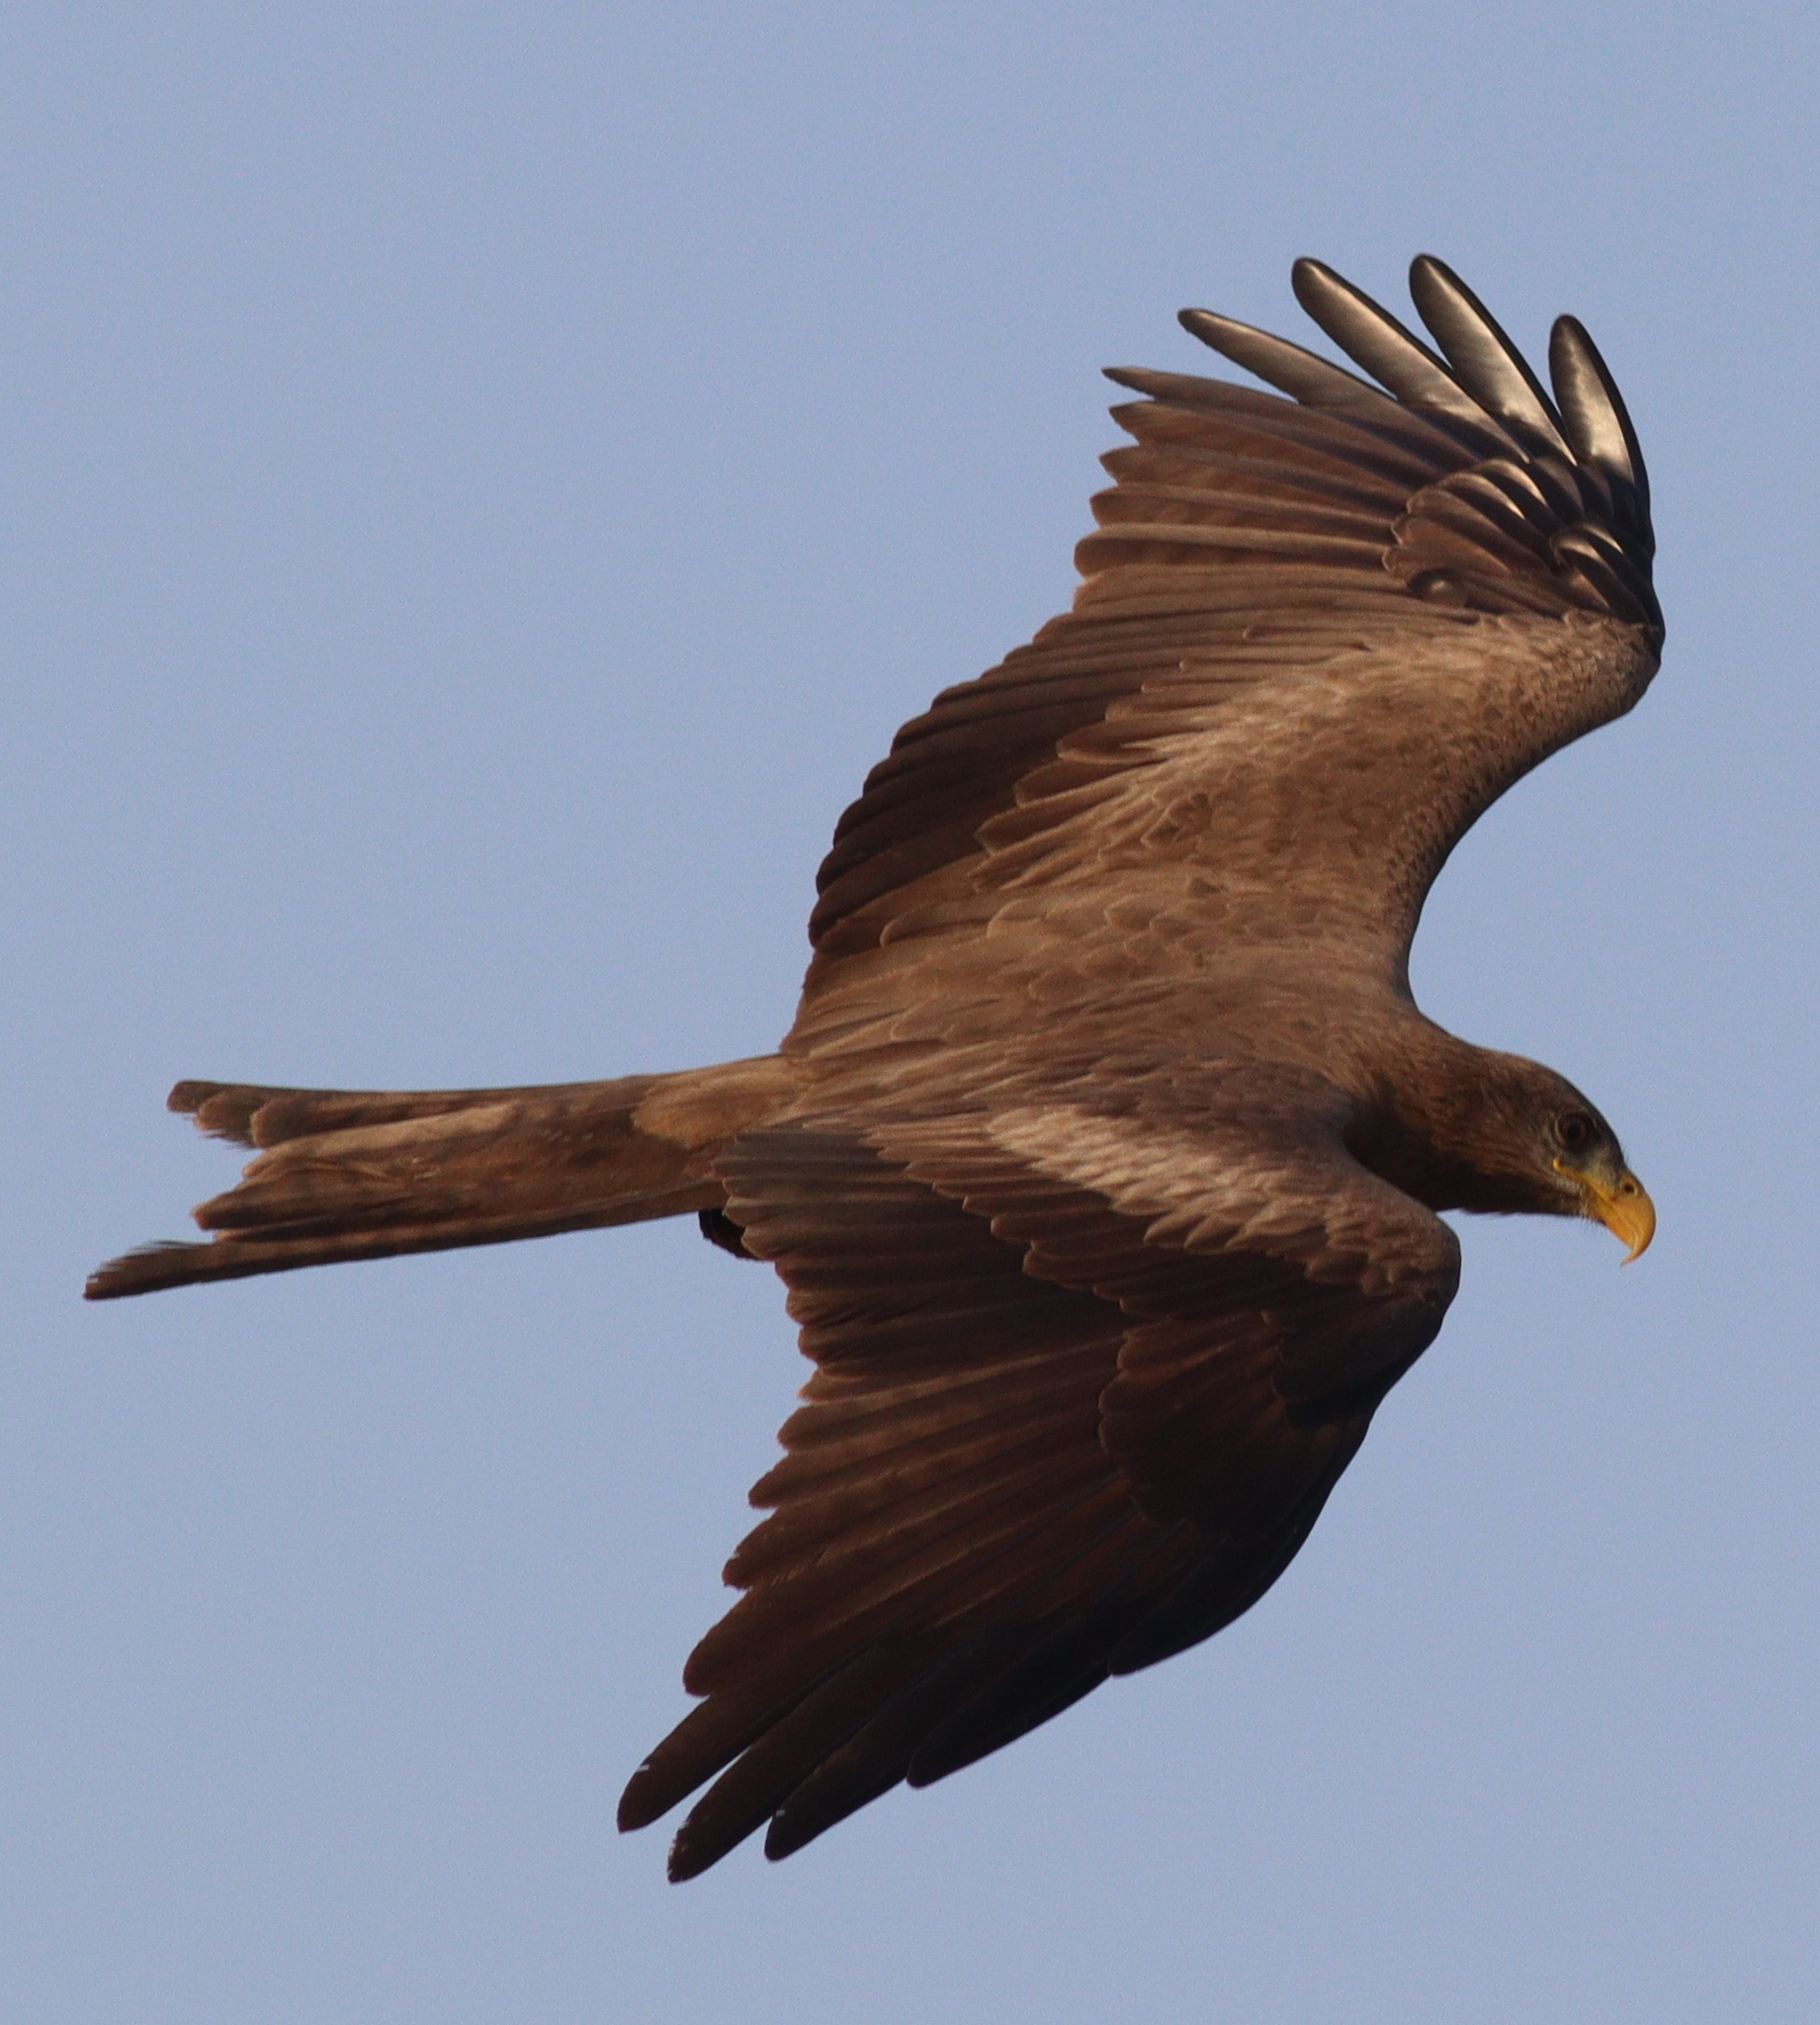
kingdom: Animalia
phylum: Chordata
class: Aves
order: Accipitriformes
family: Accipitridae
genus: Milvus
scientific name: Milvus migrans
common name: Black kite
